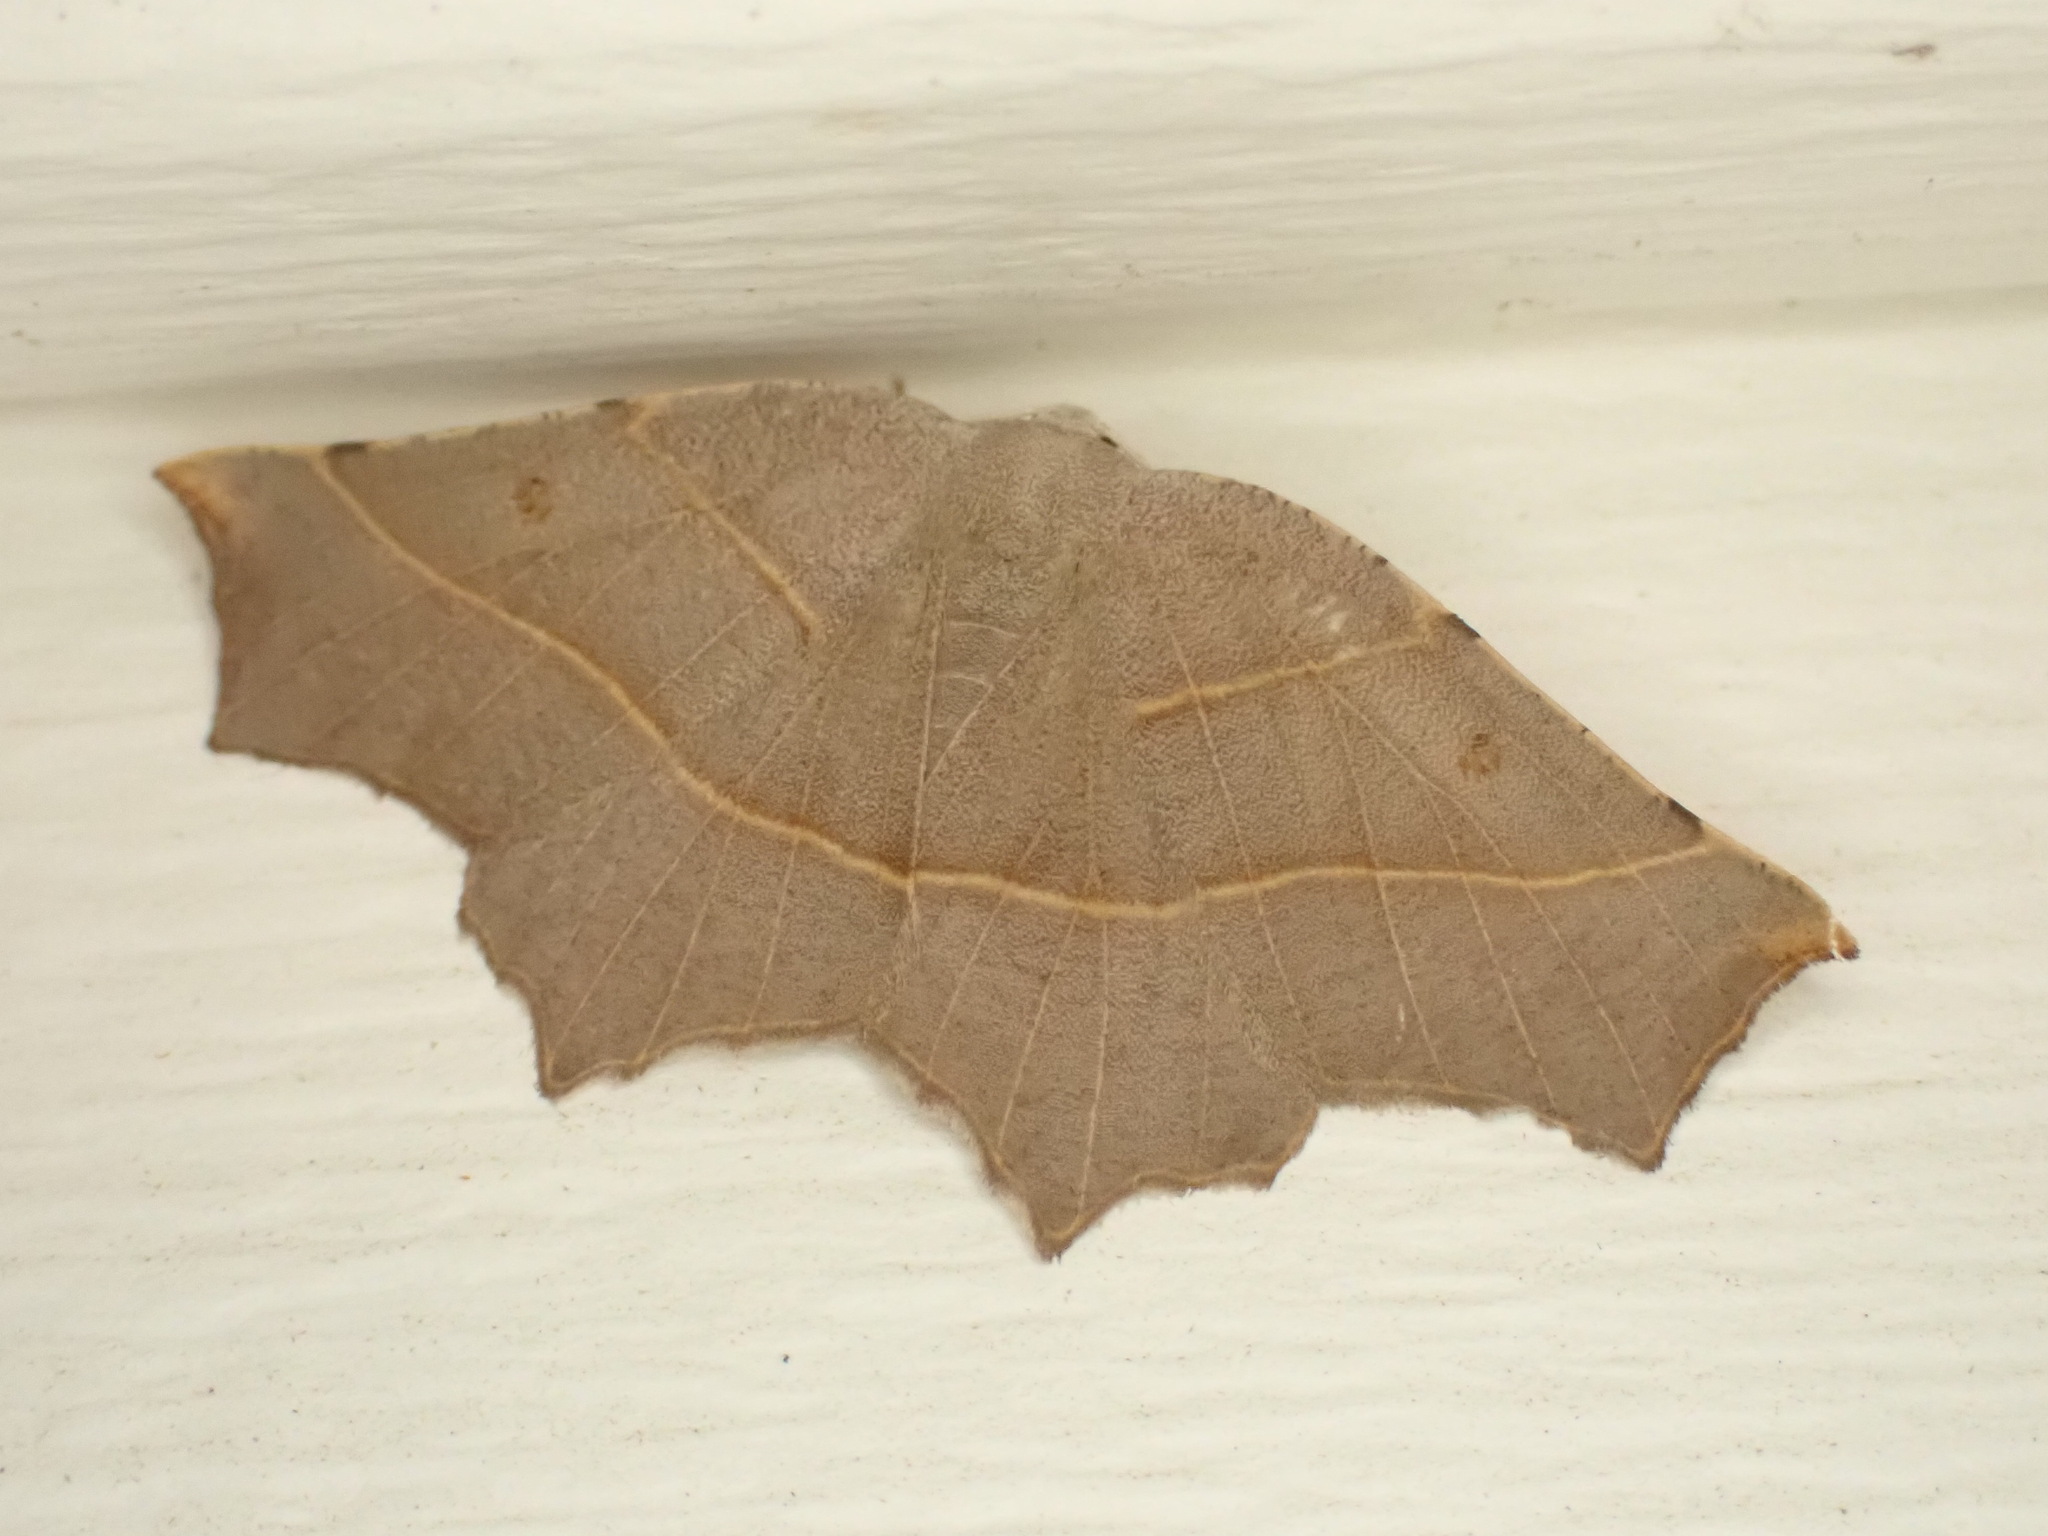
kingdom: Animalia
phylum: Arthropoda
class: Insecta
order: Lepidoptera
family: Geometridae
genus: Metanema
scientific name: Metanema inatomaria
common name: Pale metanema
